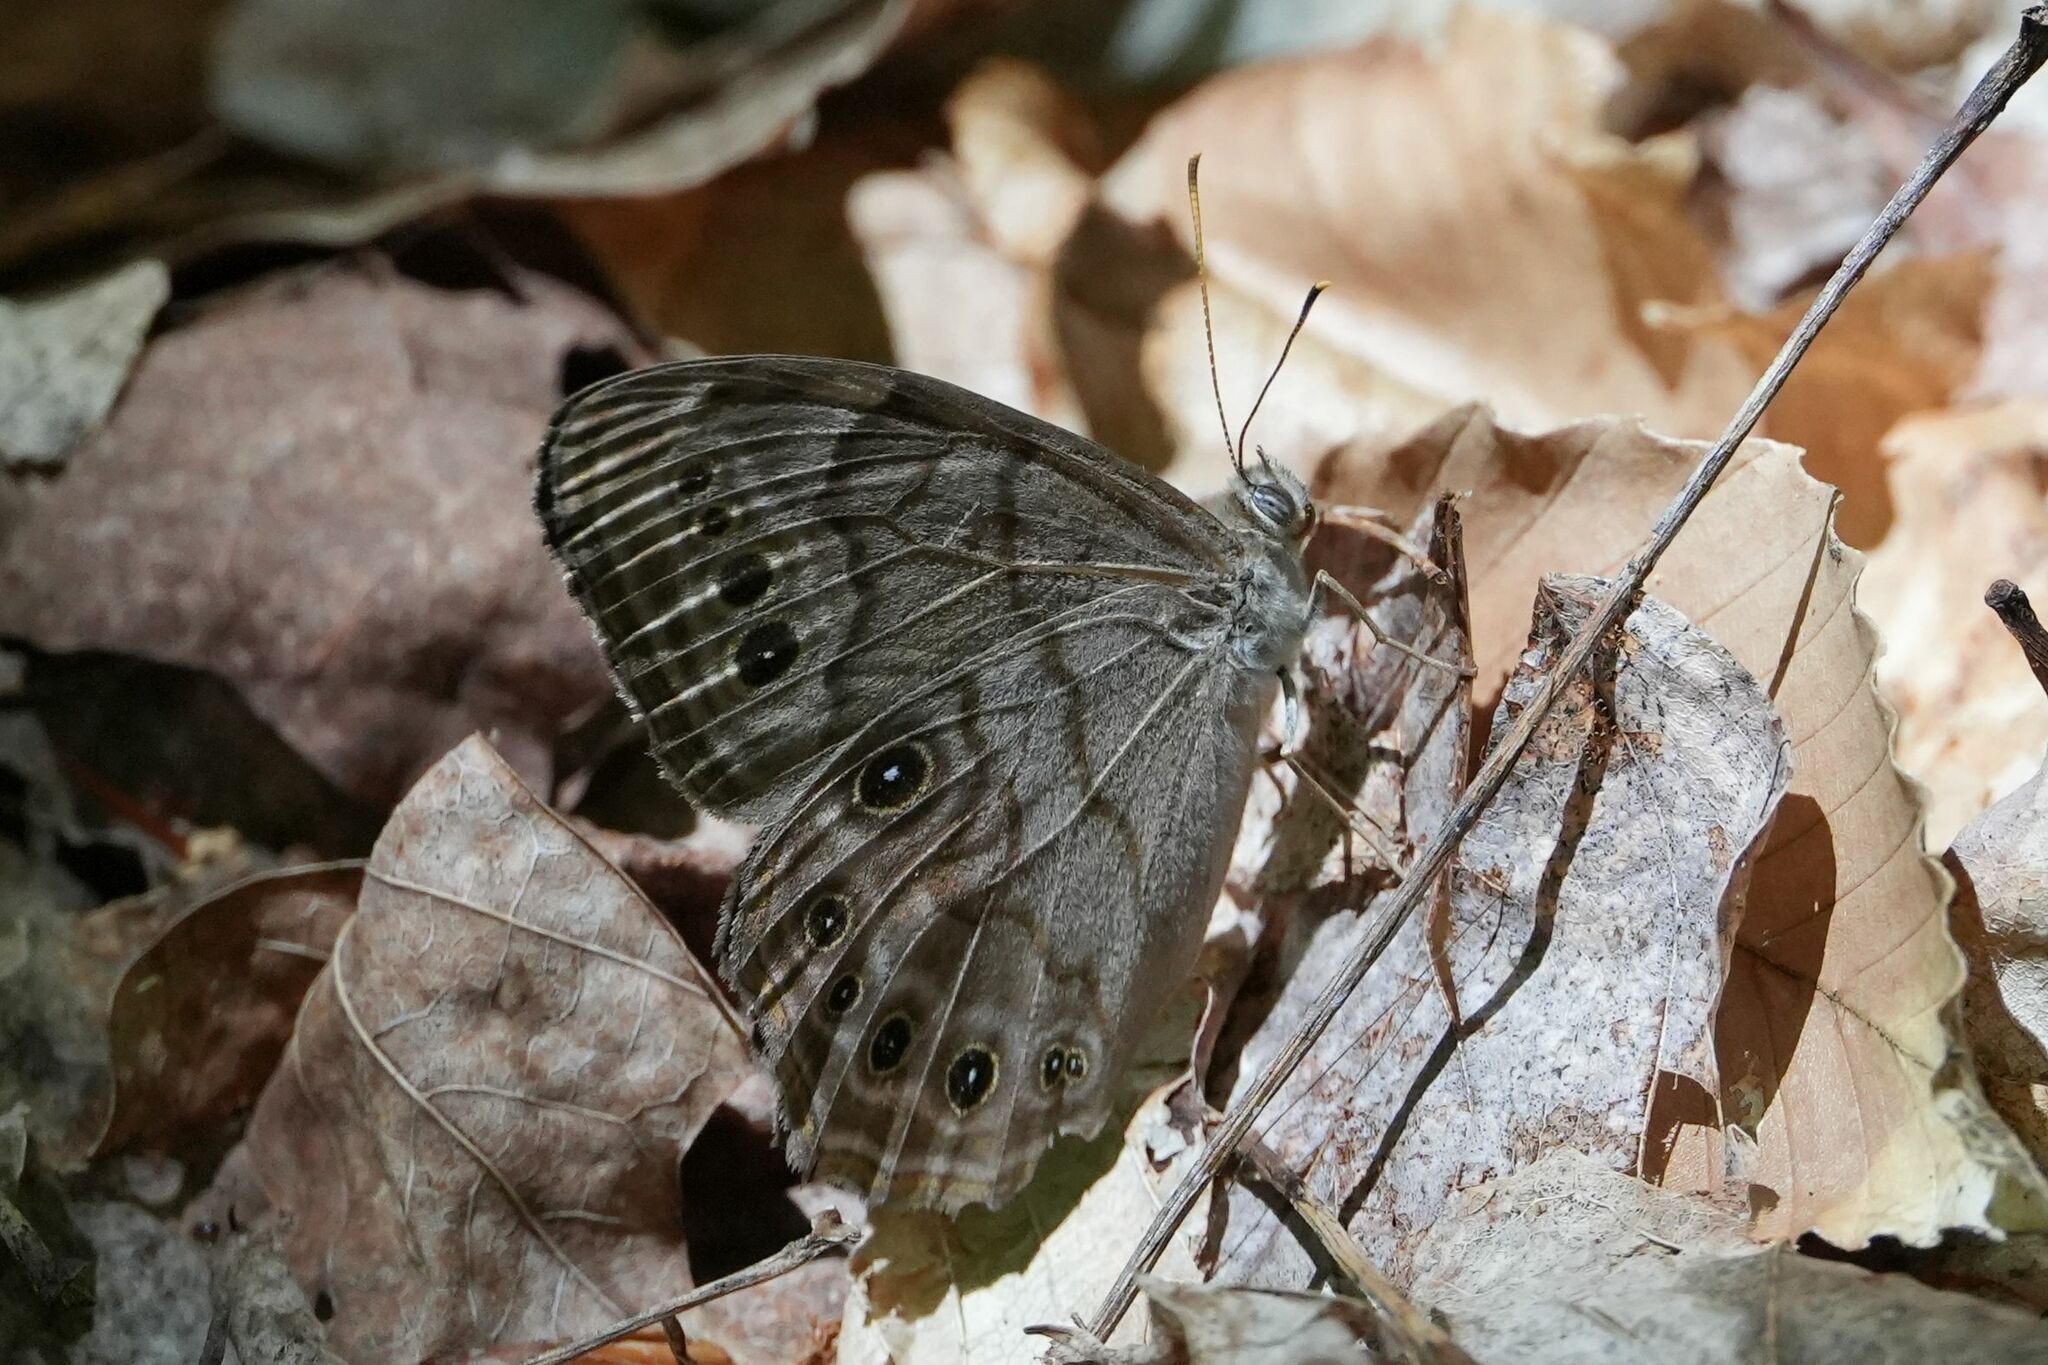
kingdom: Animalia
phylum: Arthropoda
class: Insecta
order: Lepidoptera
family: Nymphalidae
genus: Lethe
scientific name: Lethe anthedon
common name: Northern pearly-eye
